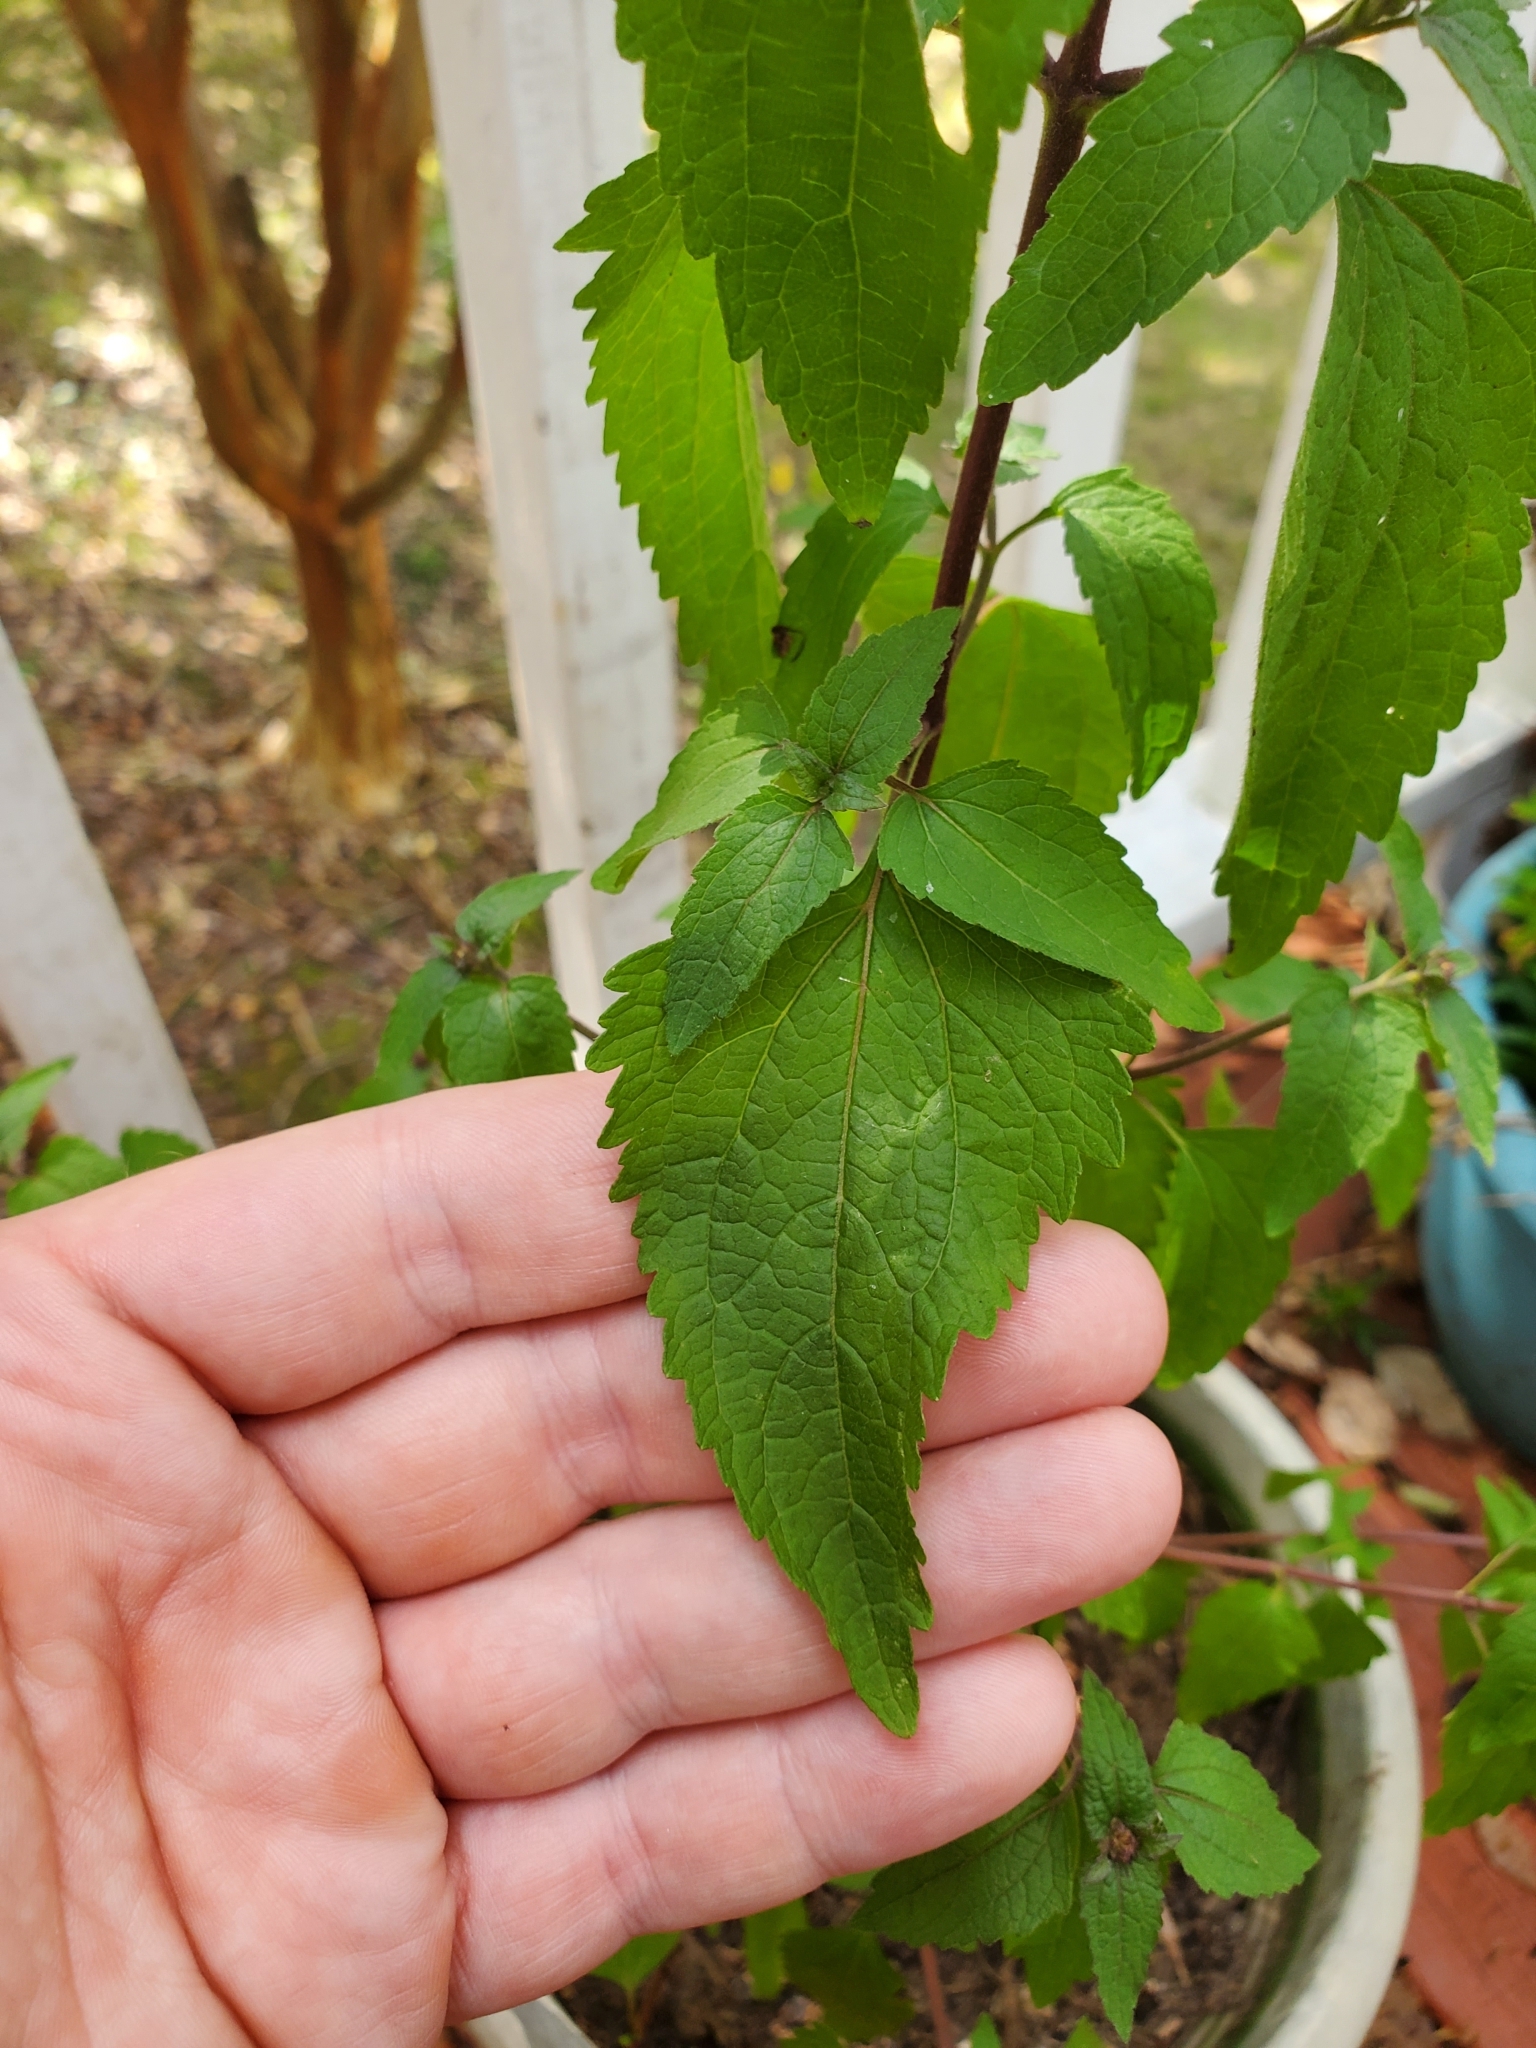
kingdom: Plantae
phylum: Tracheophyta
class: Magnoliopsida
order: Asterales
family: Asteraceae
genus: Conoclinium
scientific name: Conoclinium coelestinum
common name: Blue mistflower
